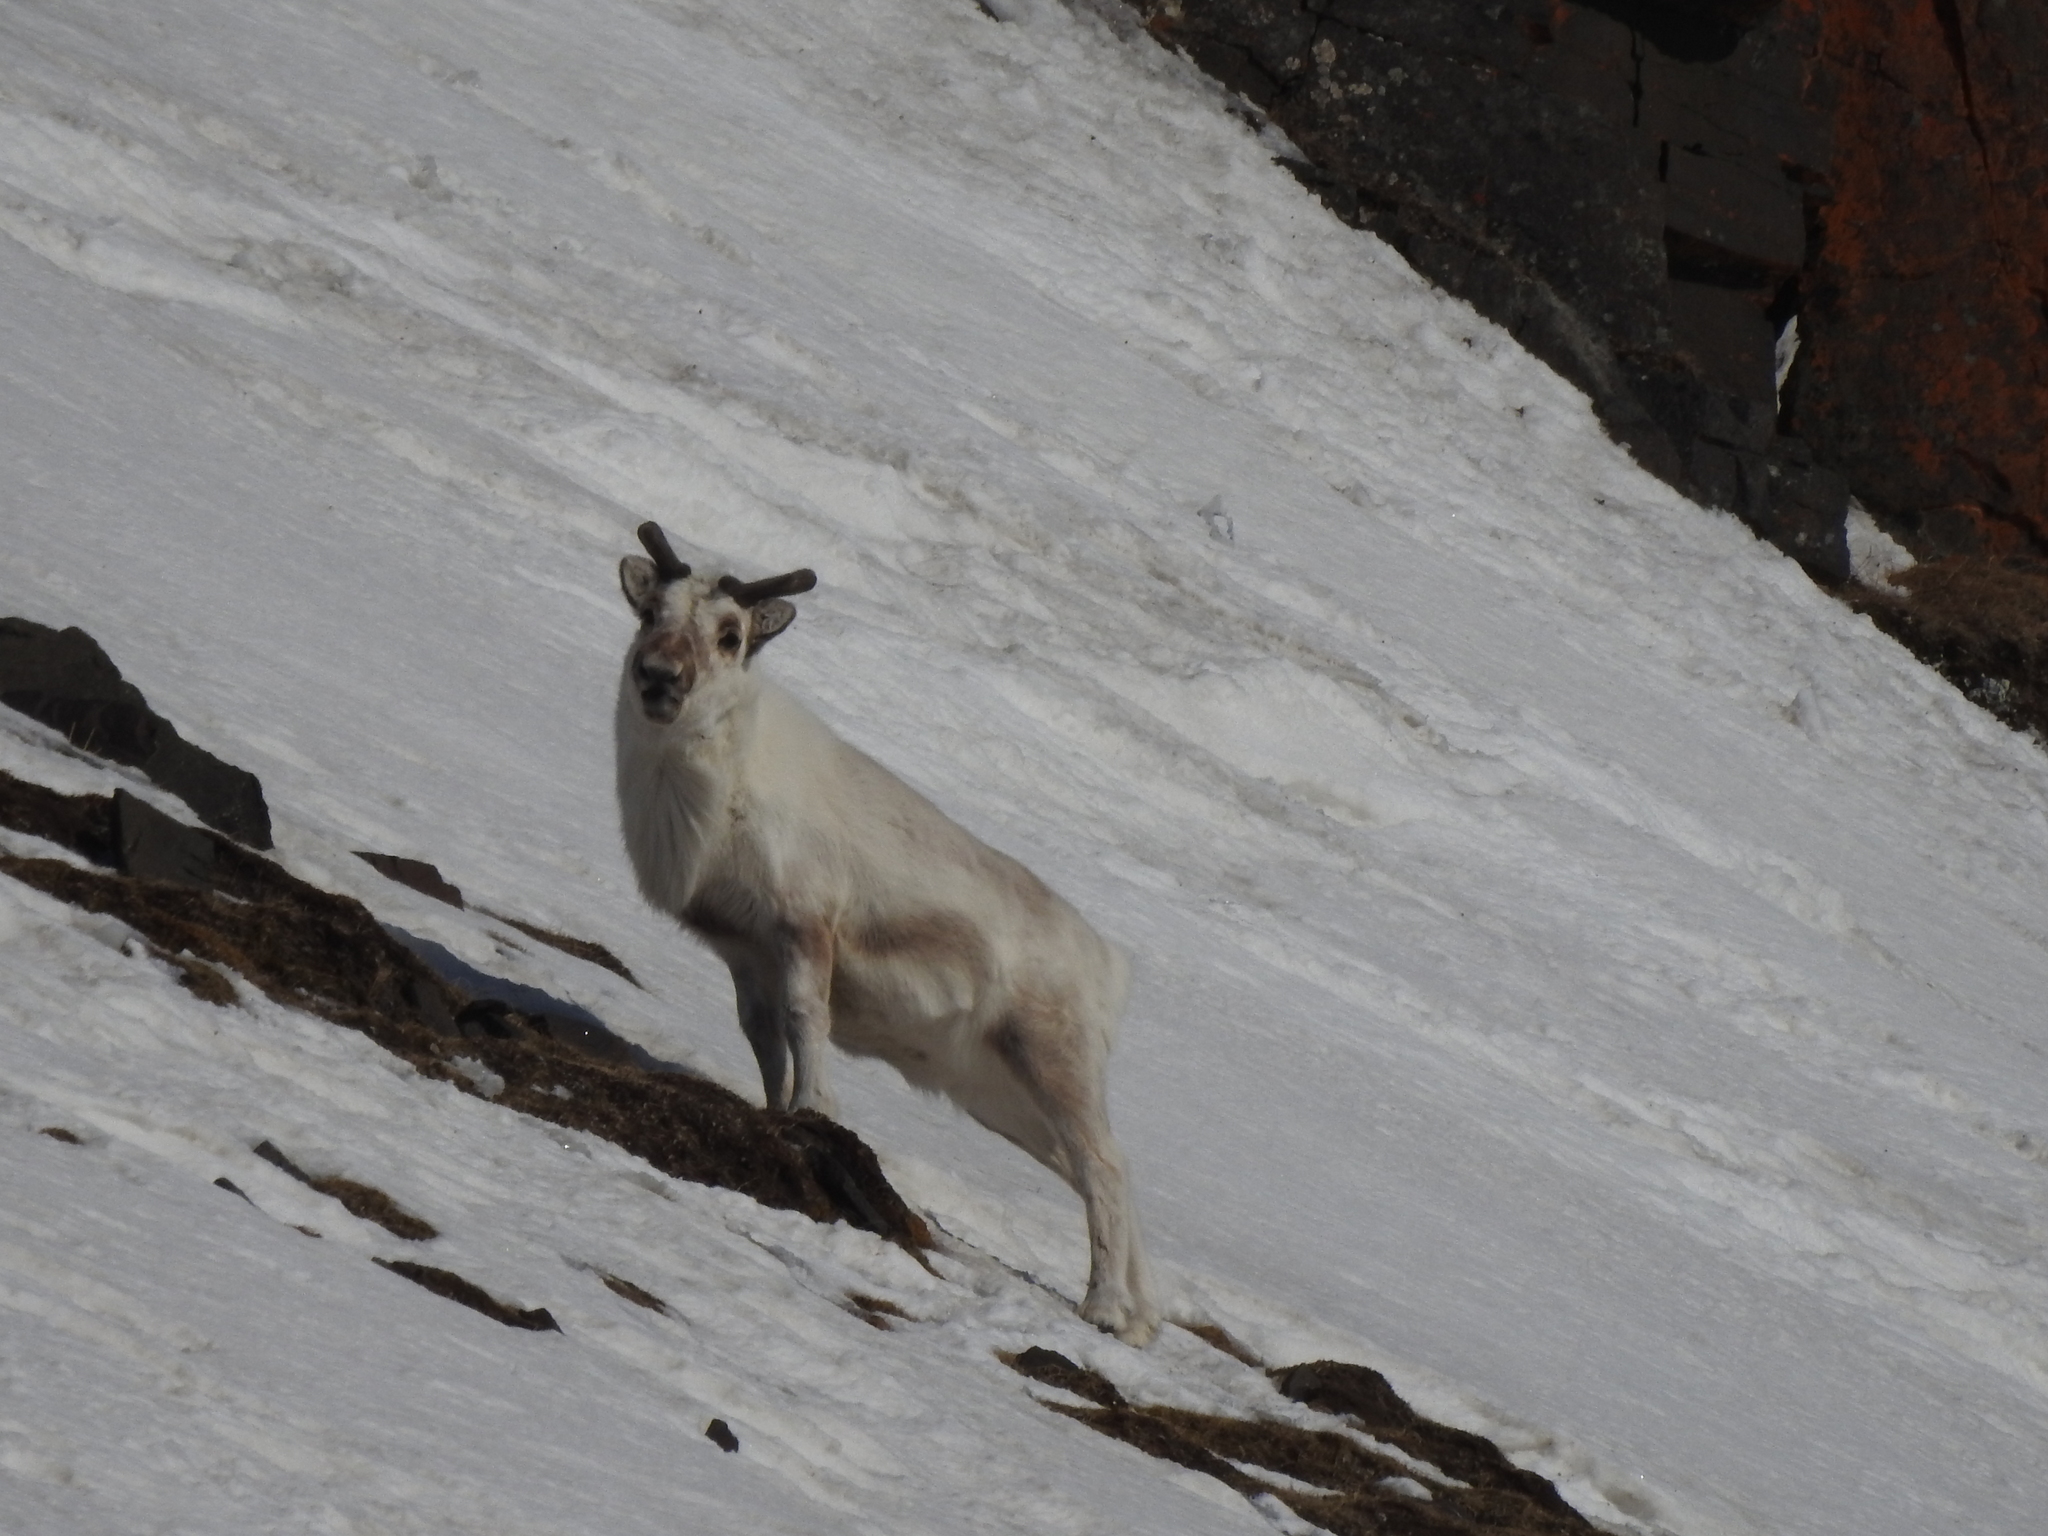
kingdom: Animalia
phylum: Chordata
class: Mammalia
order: Artiodactyla
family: Cervidae
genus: Rangifer
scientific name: Rangifer tarandus
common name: Reindeer
